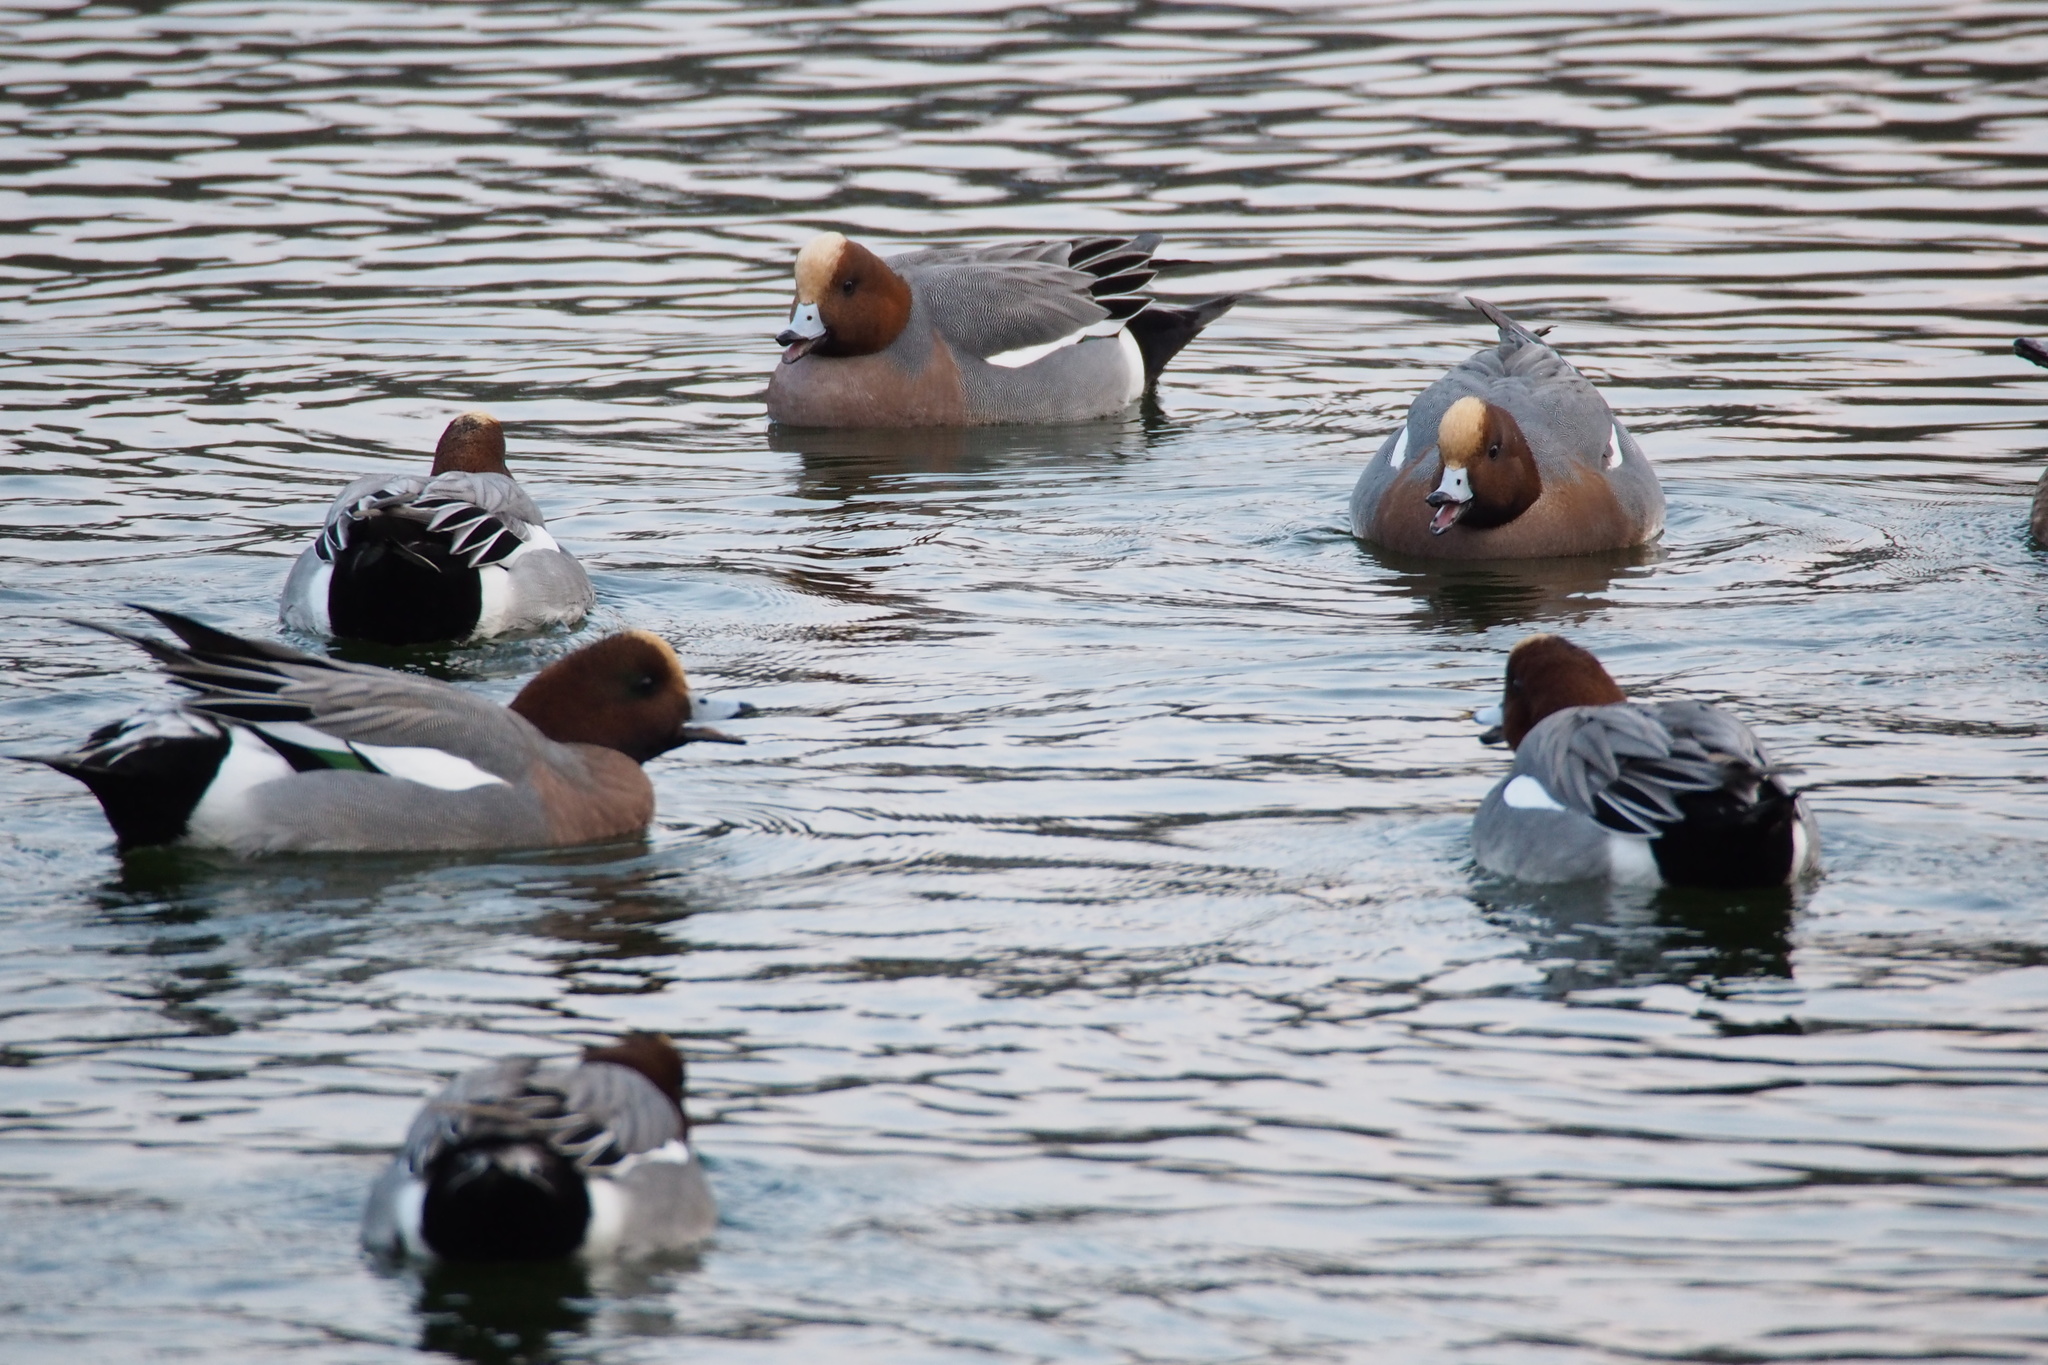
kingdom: Animalia
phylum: Chordata
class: Aves
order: Anseriformes
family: Anatidae
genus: Mareca
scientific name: Mareca penelope
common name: Eurasian wigeon
